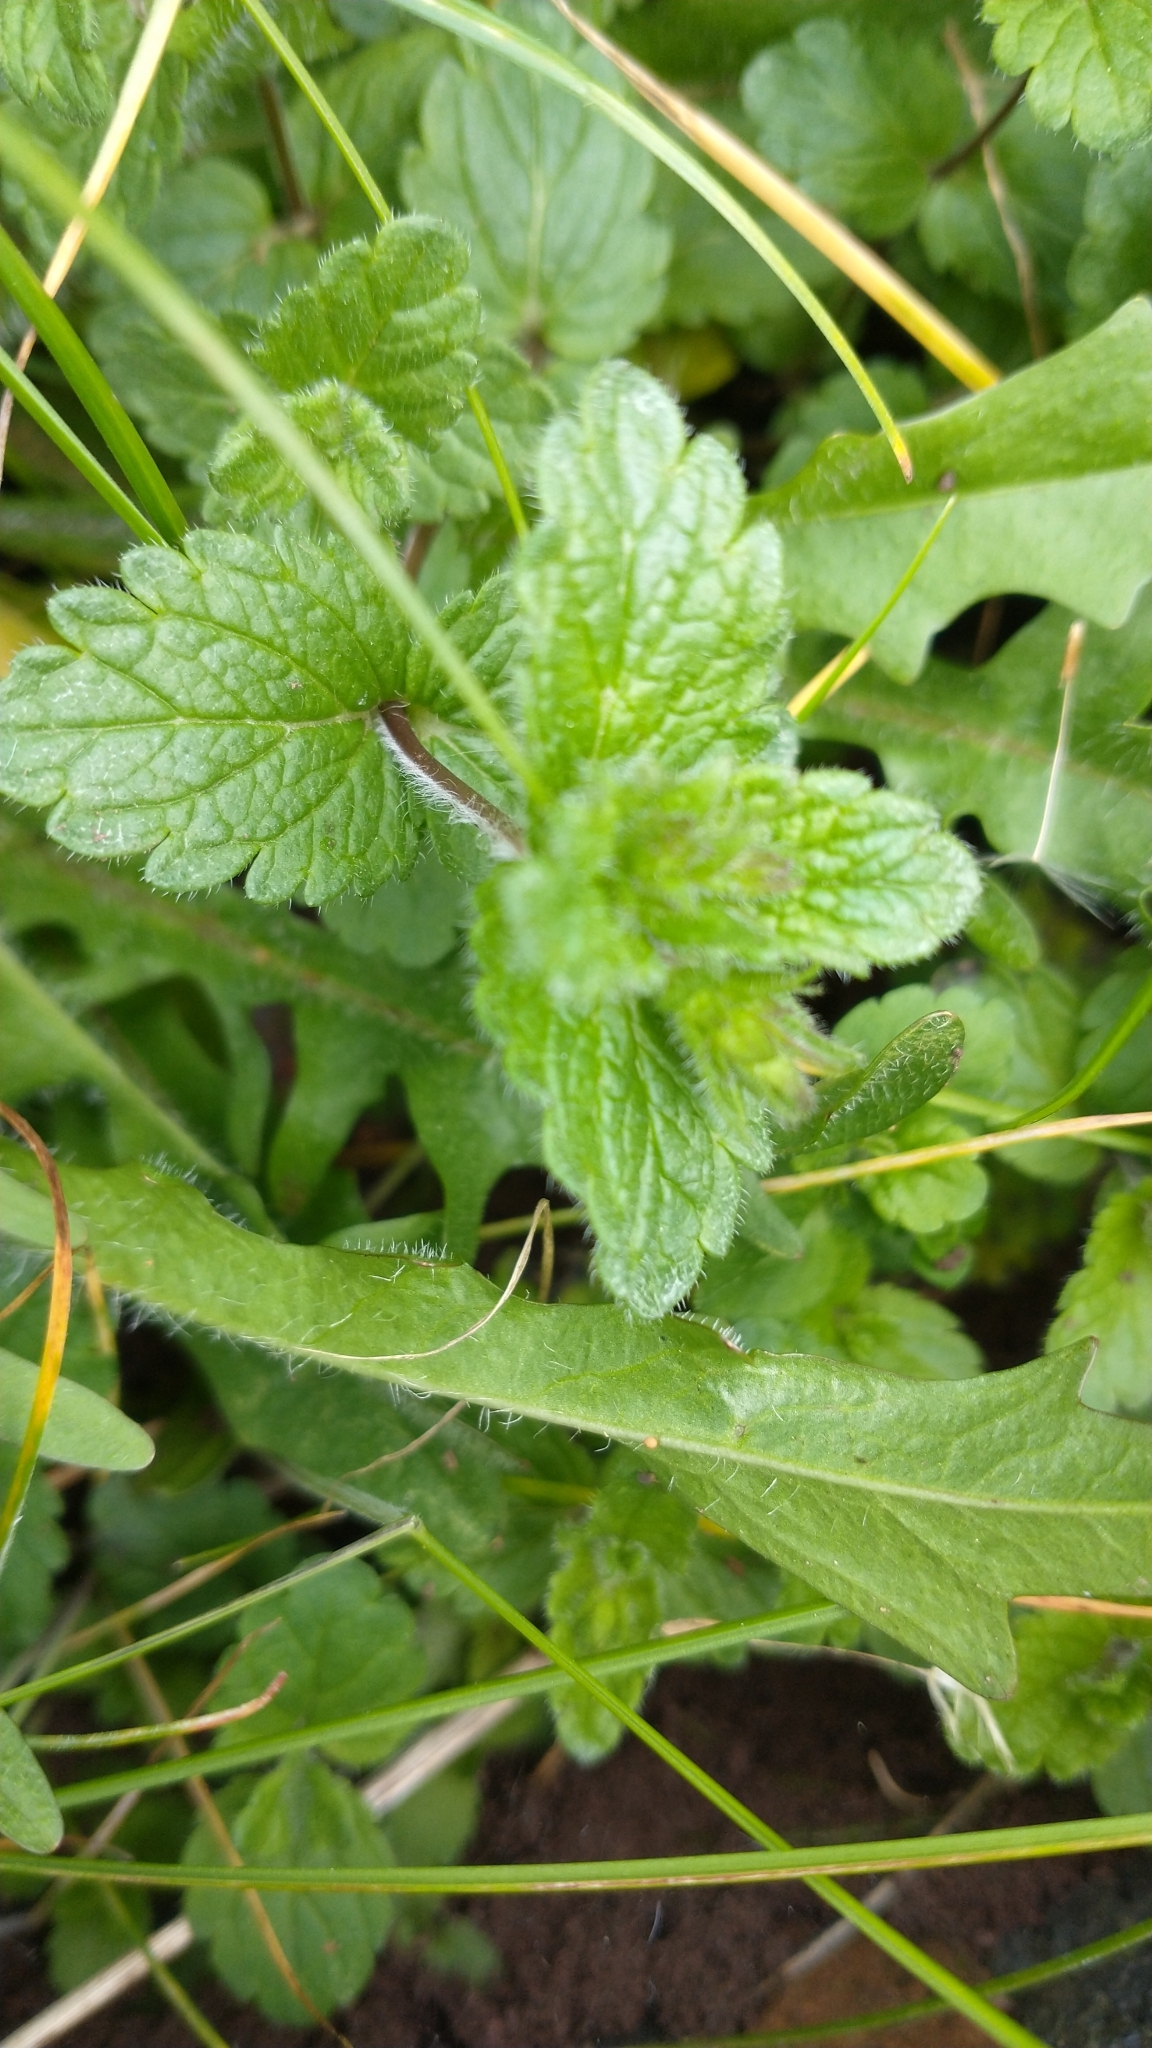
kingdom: Plantae
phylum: Tracheophyta
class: Magnoliopsida
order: Lamiales
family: Plantaginaceae
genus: Veronica
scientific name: Veronica persica
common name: Common field-speedwell
